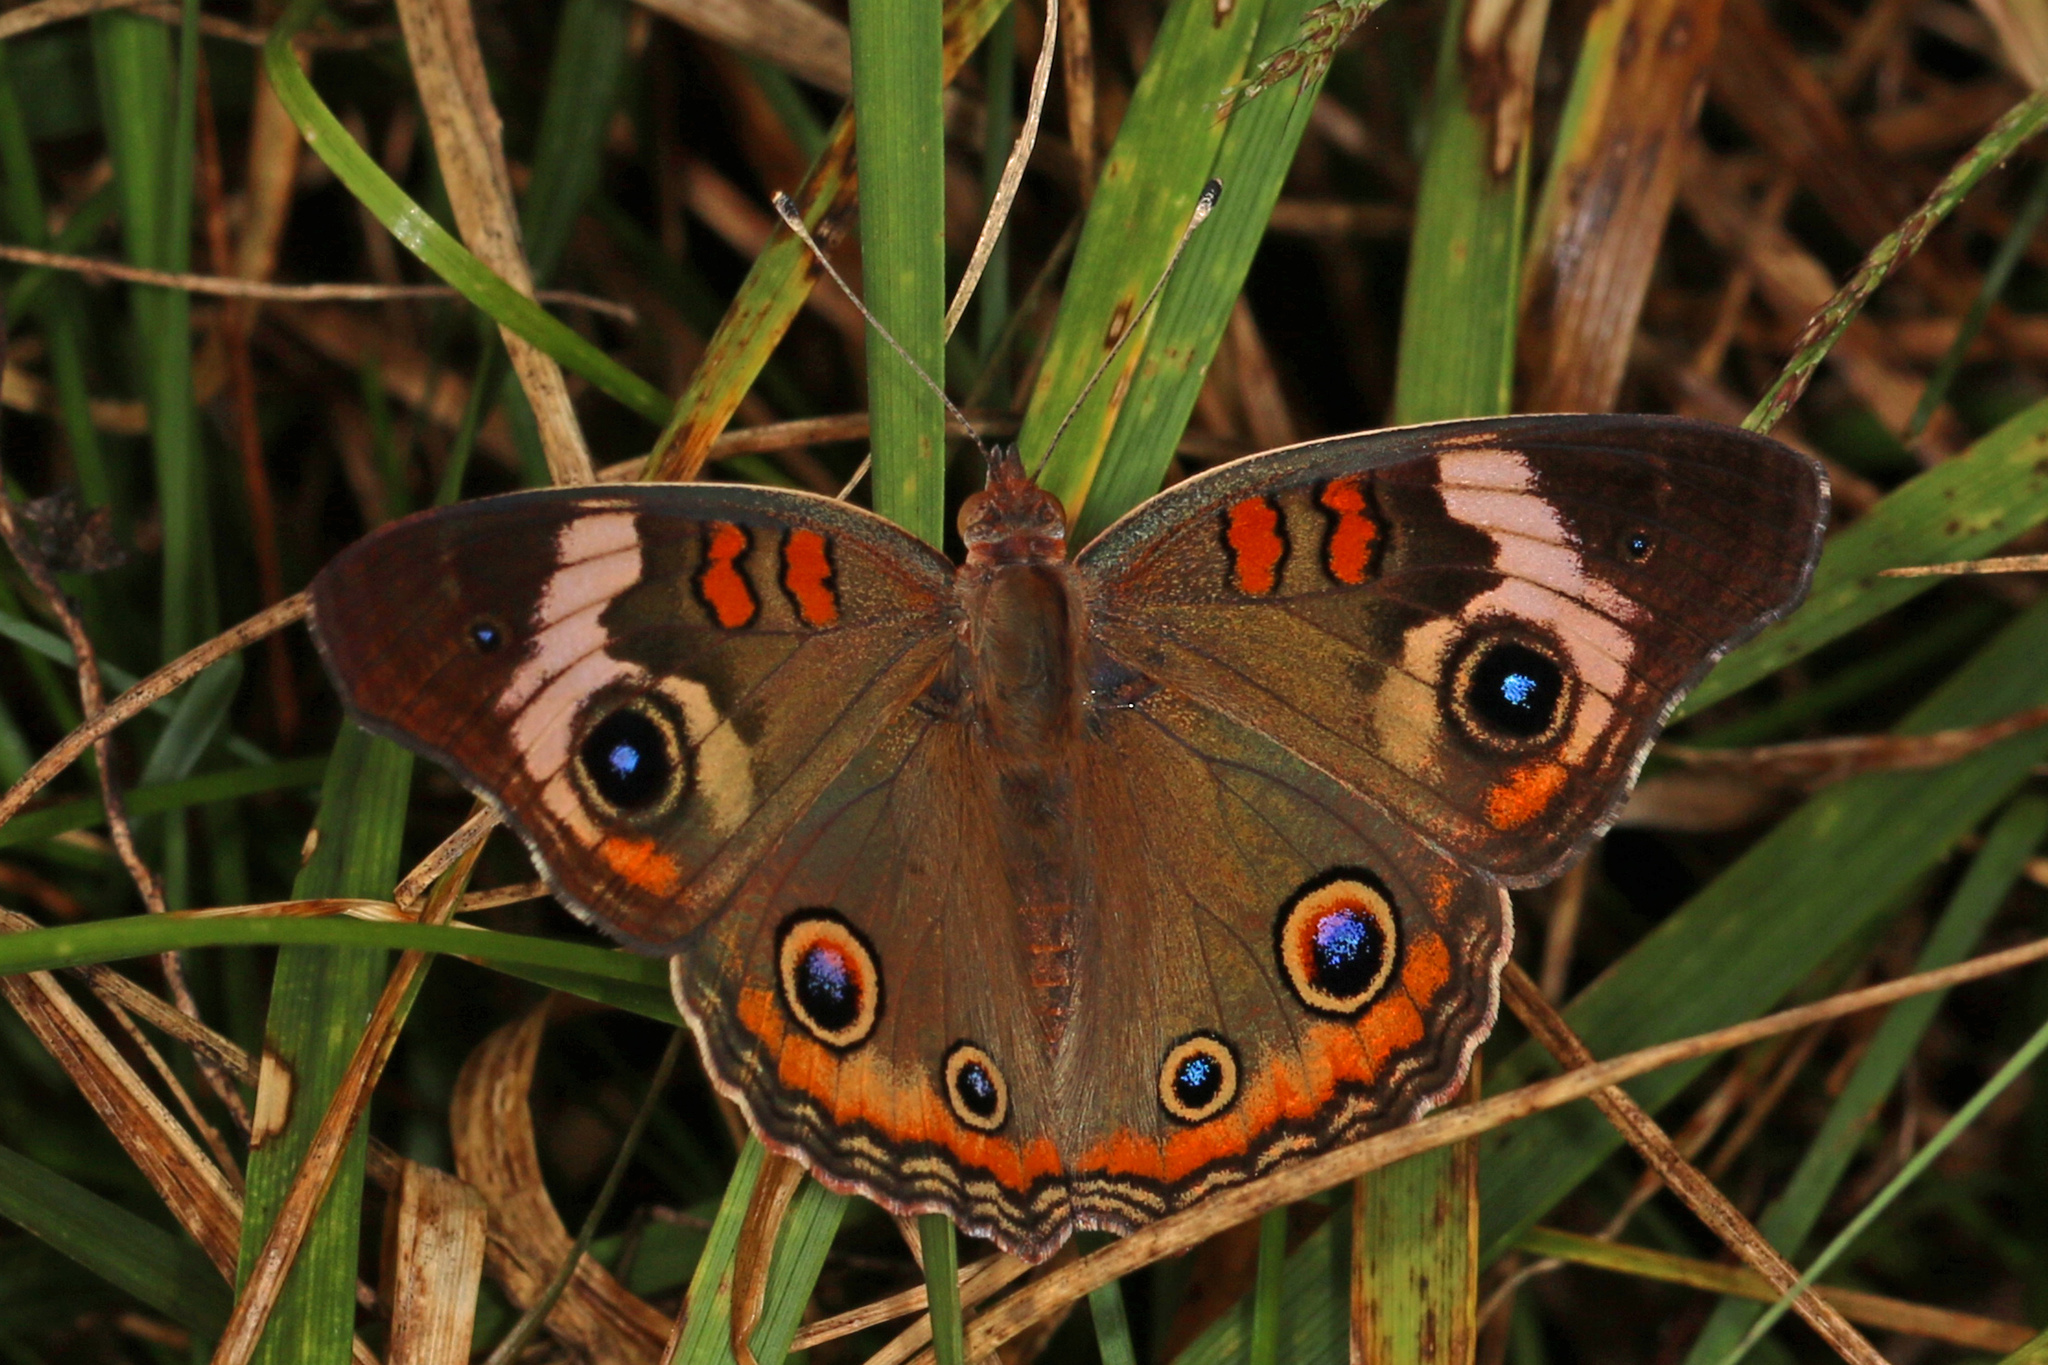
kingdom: Animalia
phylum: Arthropoda
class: Insecta
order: Lepidoptera
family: Nymphalidae
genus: Junonia
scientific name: Junonia coenia
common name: Common buckeye
